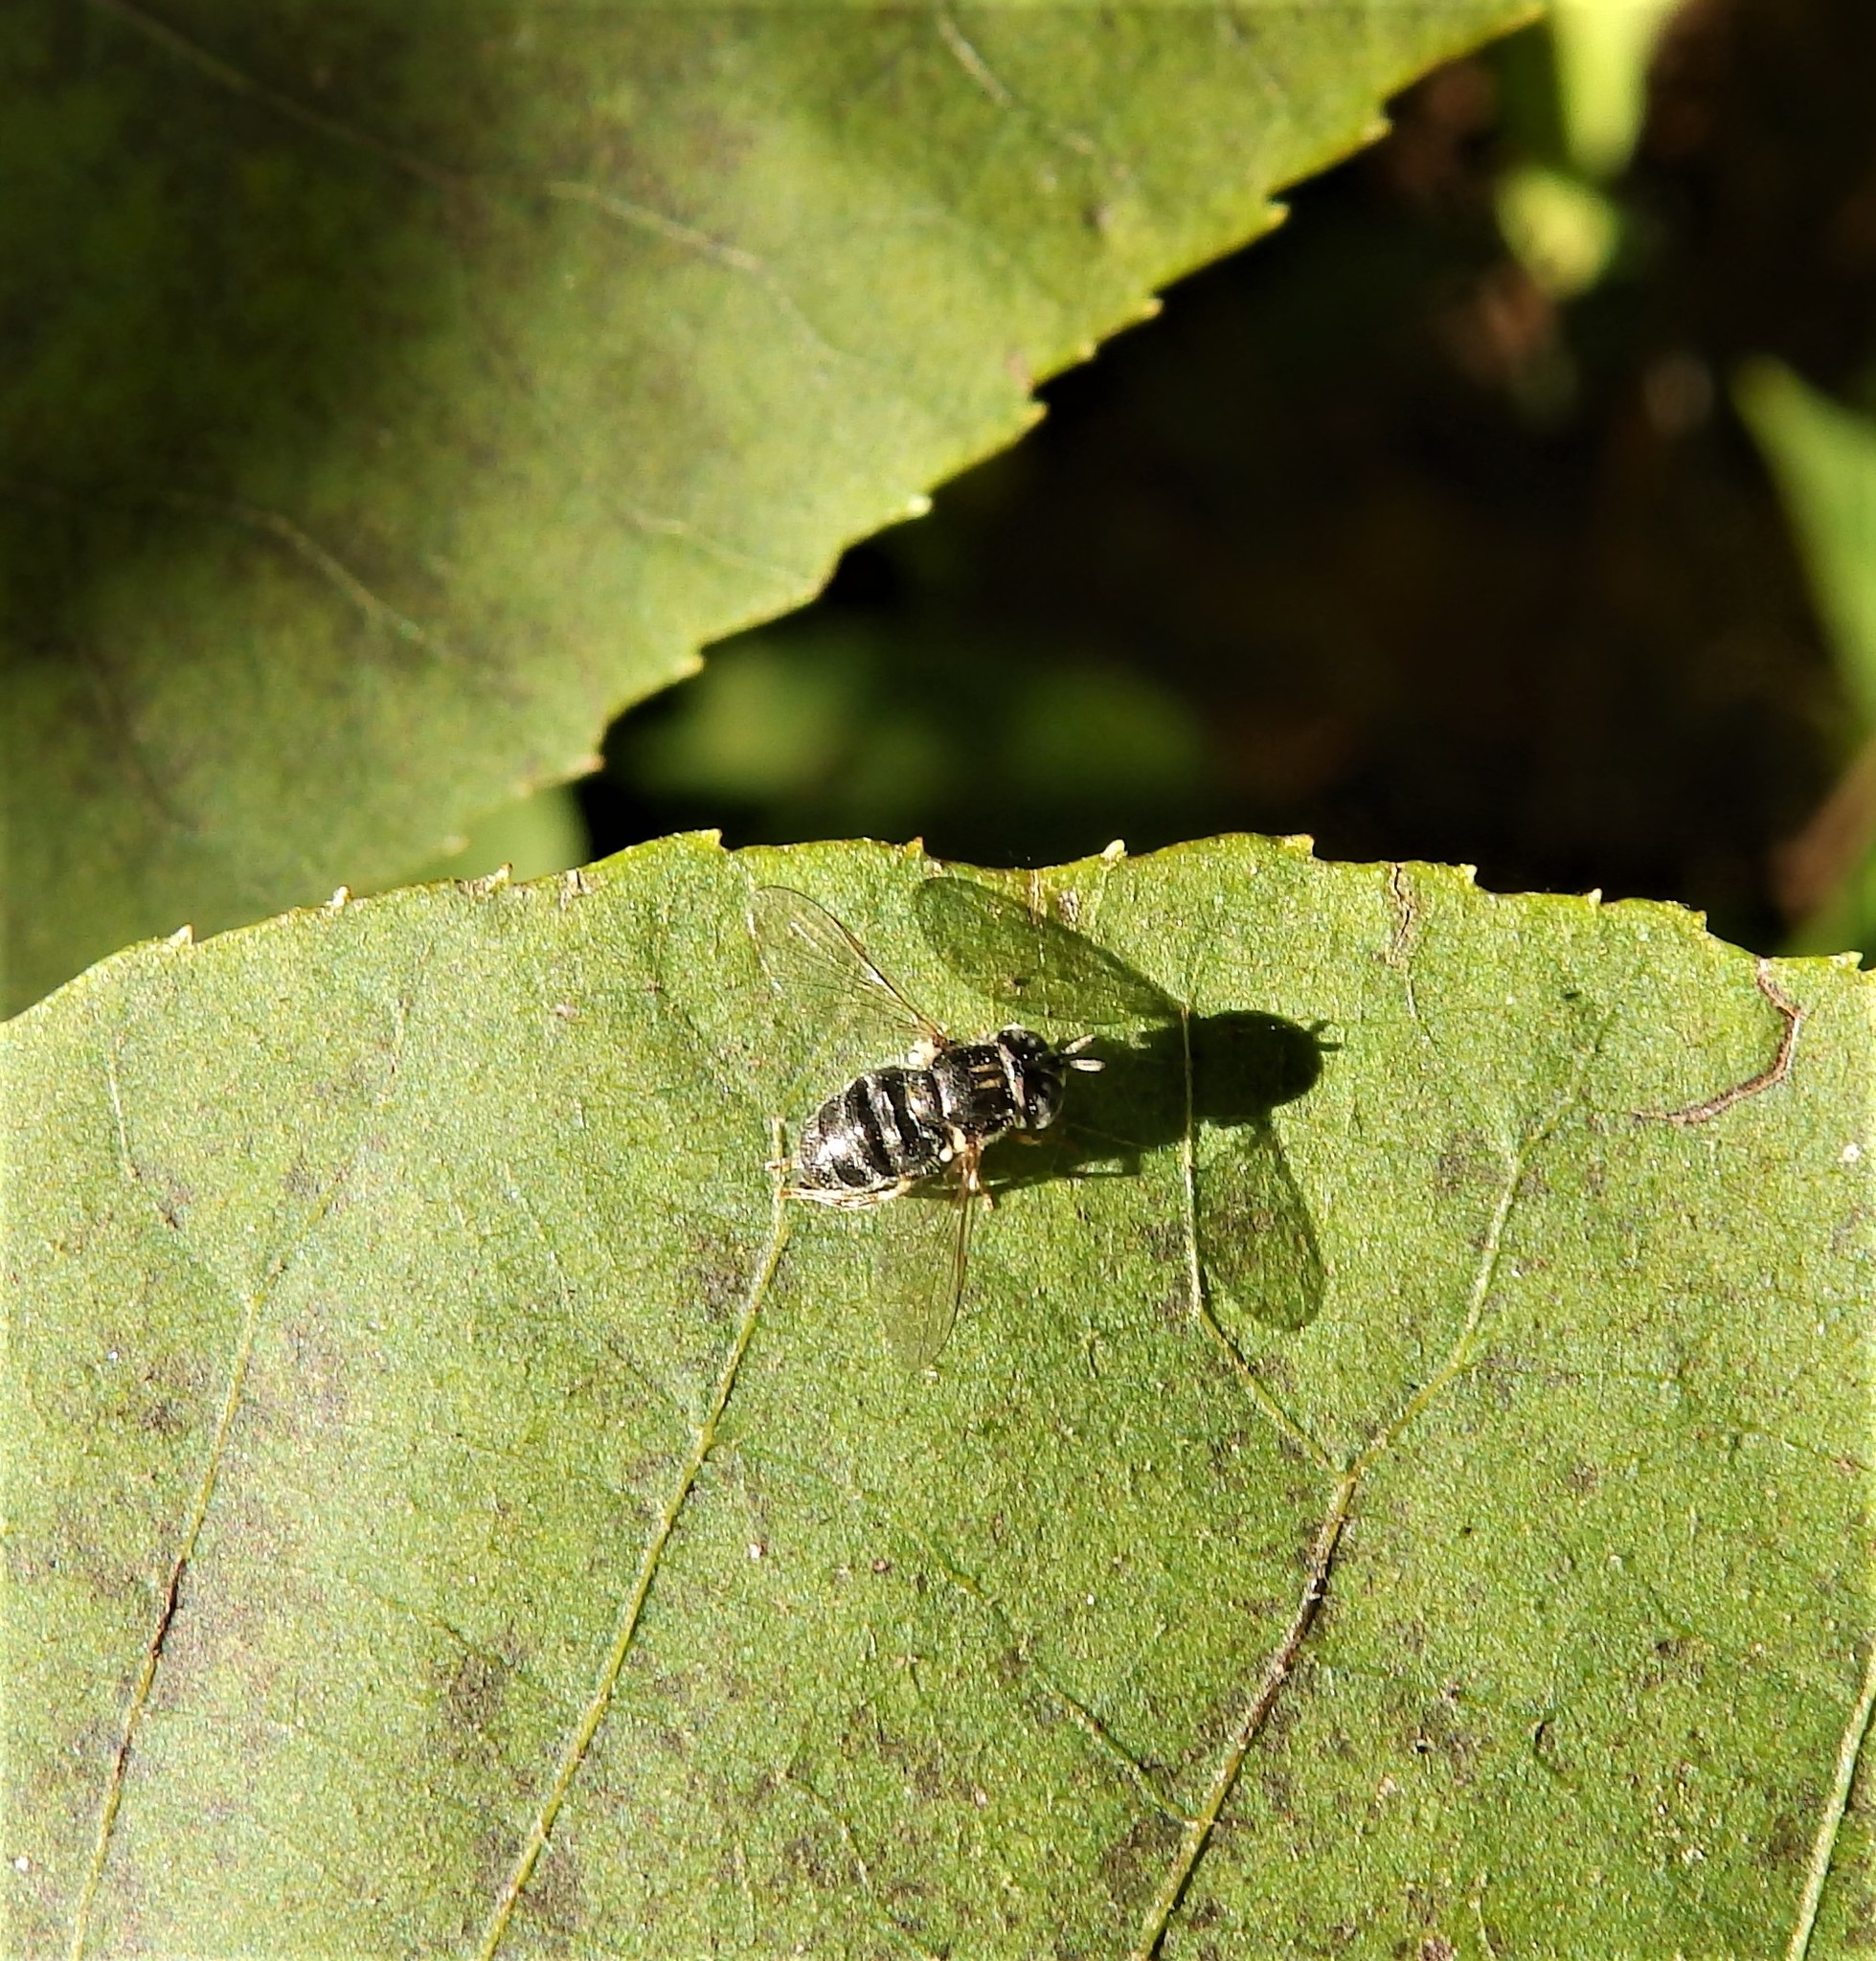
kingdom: Animalia
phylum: Arthropoda
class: Insecta
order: Diptera
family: Syrphidae
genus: Paragus
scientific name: Paragus
